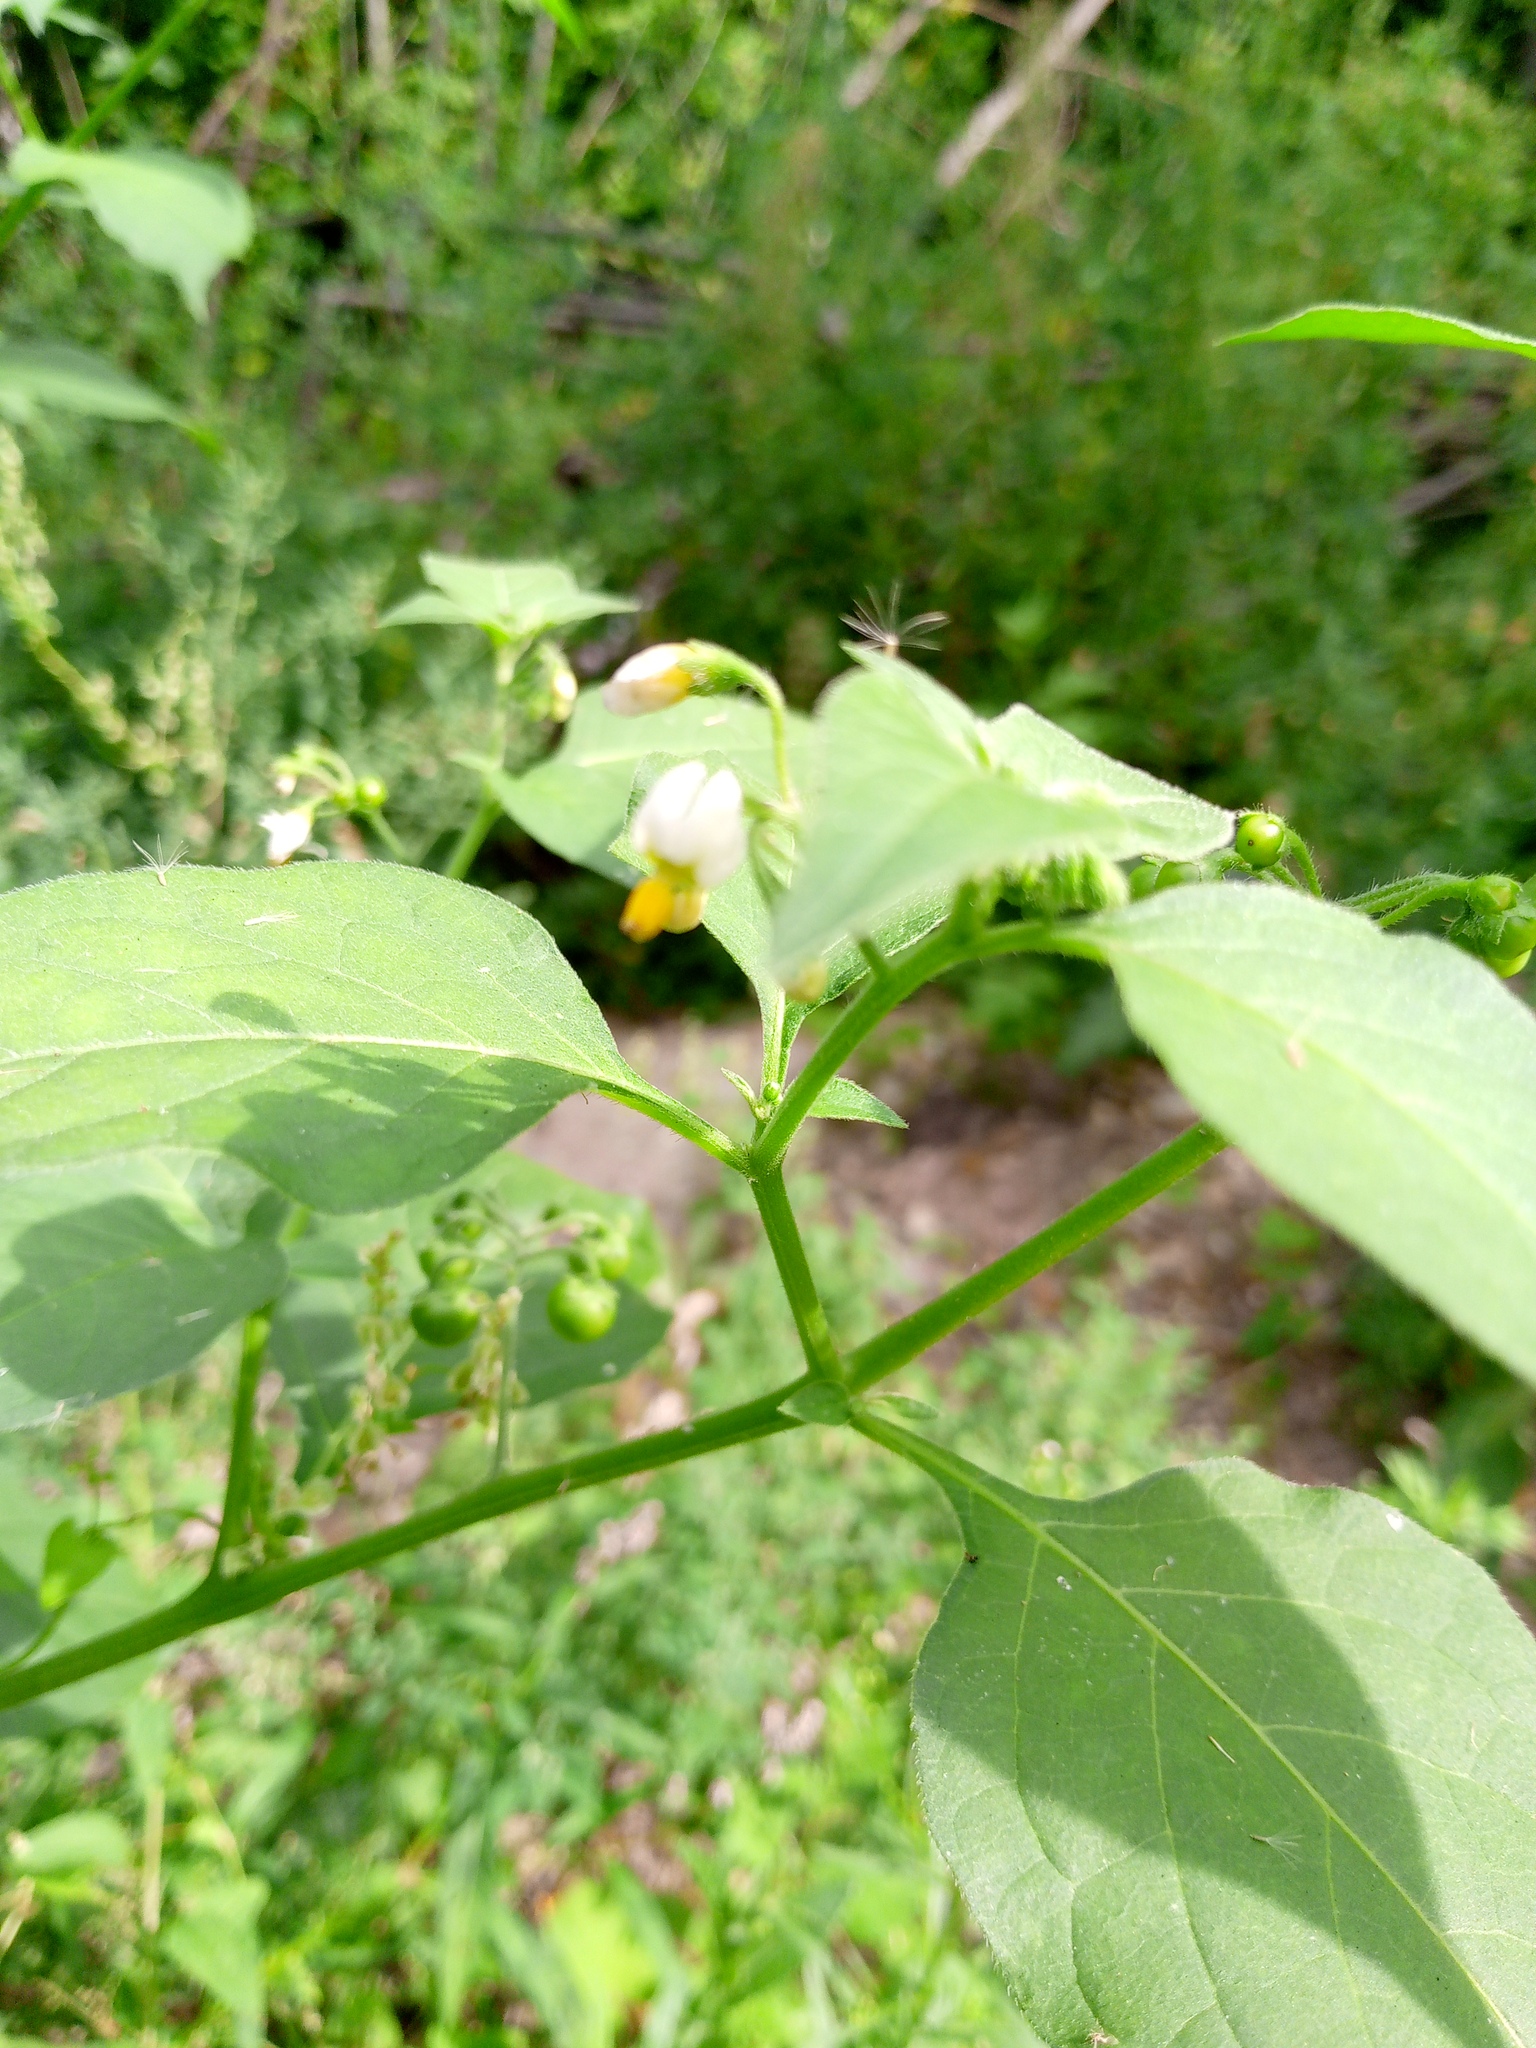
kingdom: Plantae
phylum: Tracheophyta
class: Magnoliopsida
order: Solanales
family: Solanaceae
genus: Solanum
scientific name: Solanum nigrum
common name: Black nightshade
